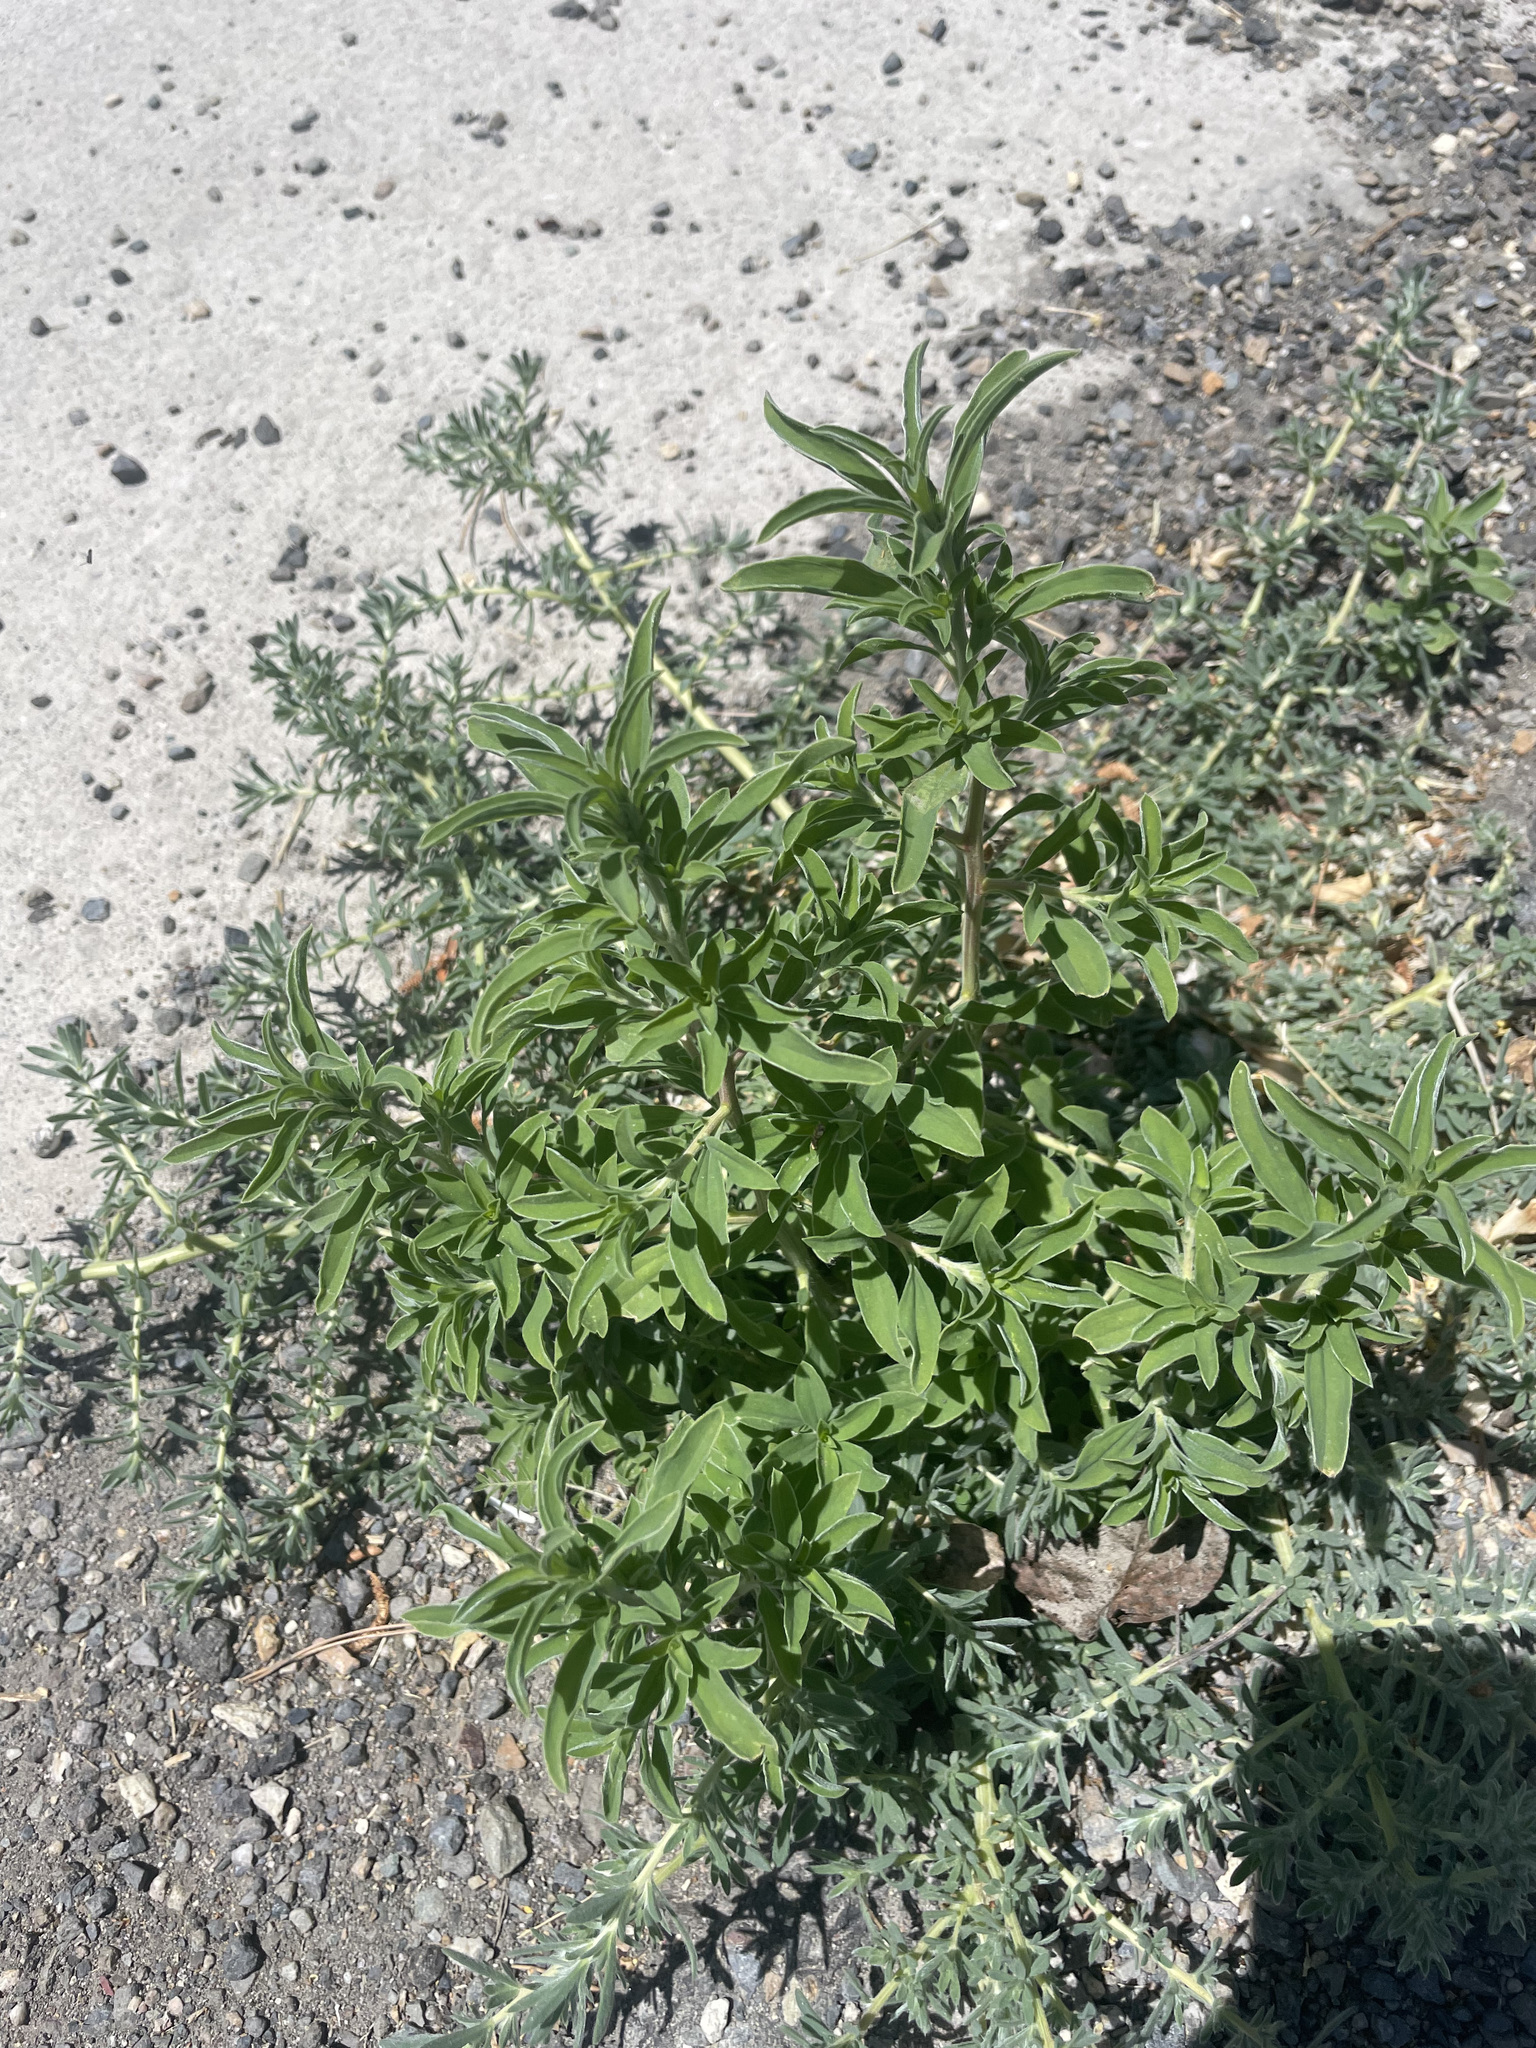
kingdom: Plantae
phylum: Tracheophyta
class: Magnoliopsida
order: Caryophyllales
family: Amaranthaceae
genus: Bassia
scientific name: Bassia scoparia
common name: Belvedere
